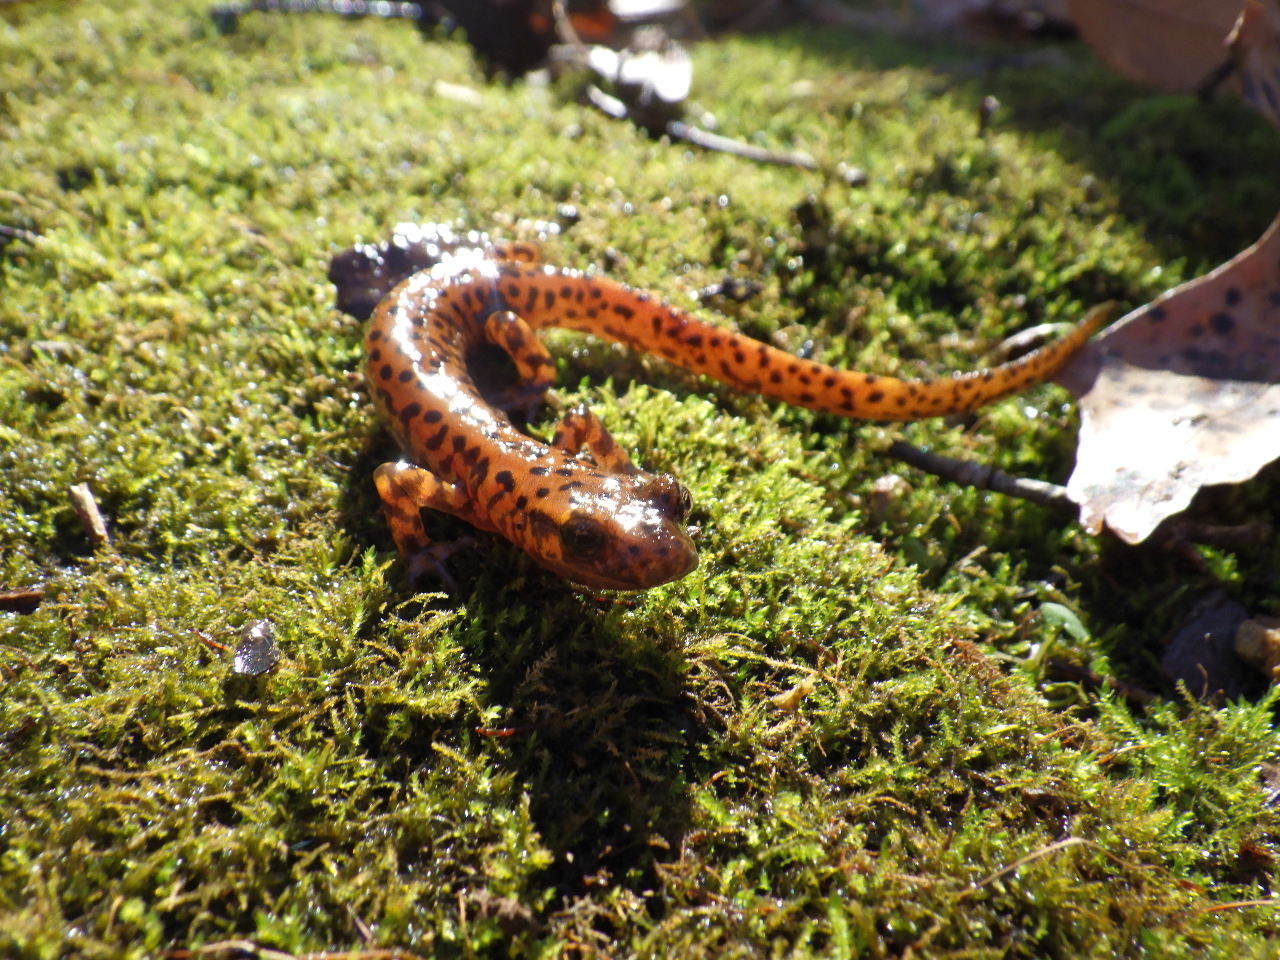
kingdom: Animalia
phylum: Chordata
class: Amphibia
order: Caudata
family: Plethodontidae
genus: Eurycea
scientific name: Eurycea lucifuga
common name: Cave salamander
